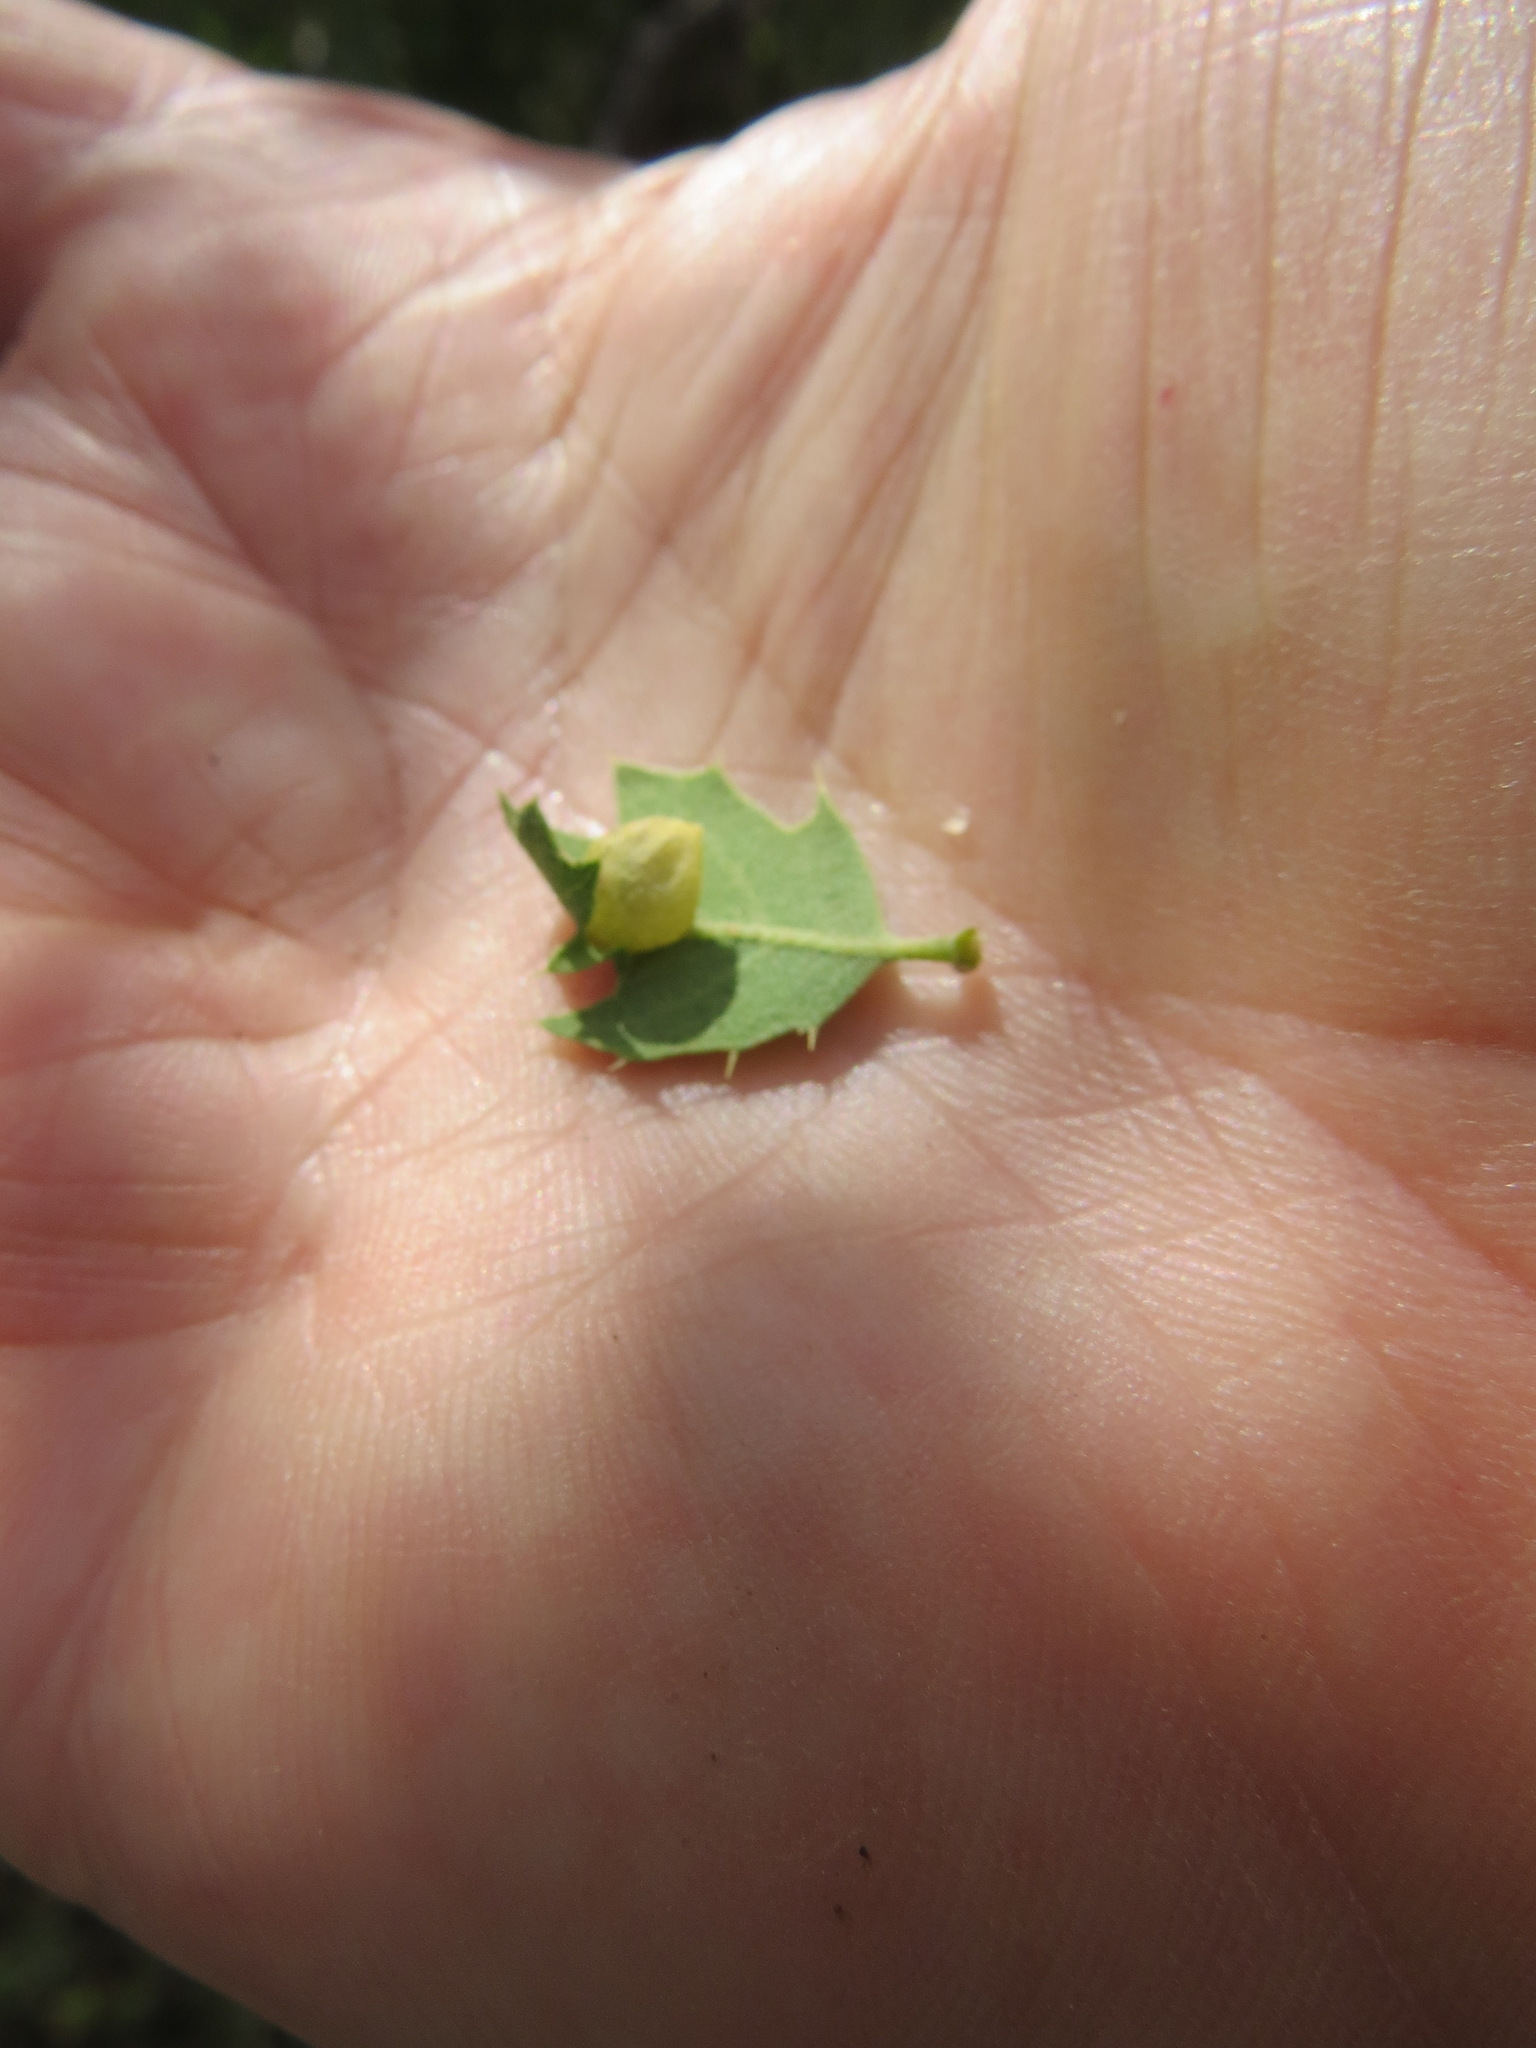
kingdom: Animalia
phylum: Arthropoda
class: Insecta
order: Hymenoptera
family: Cynipidae
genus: Andricus
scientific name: Andricus
